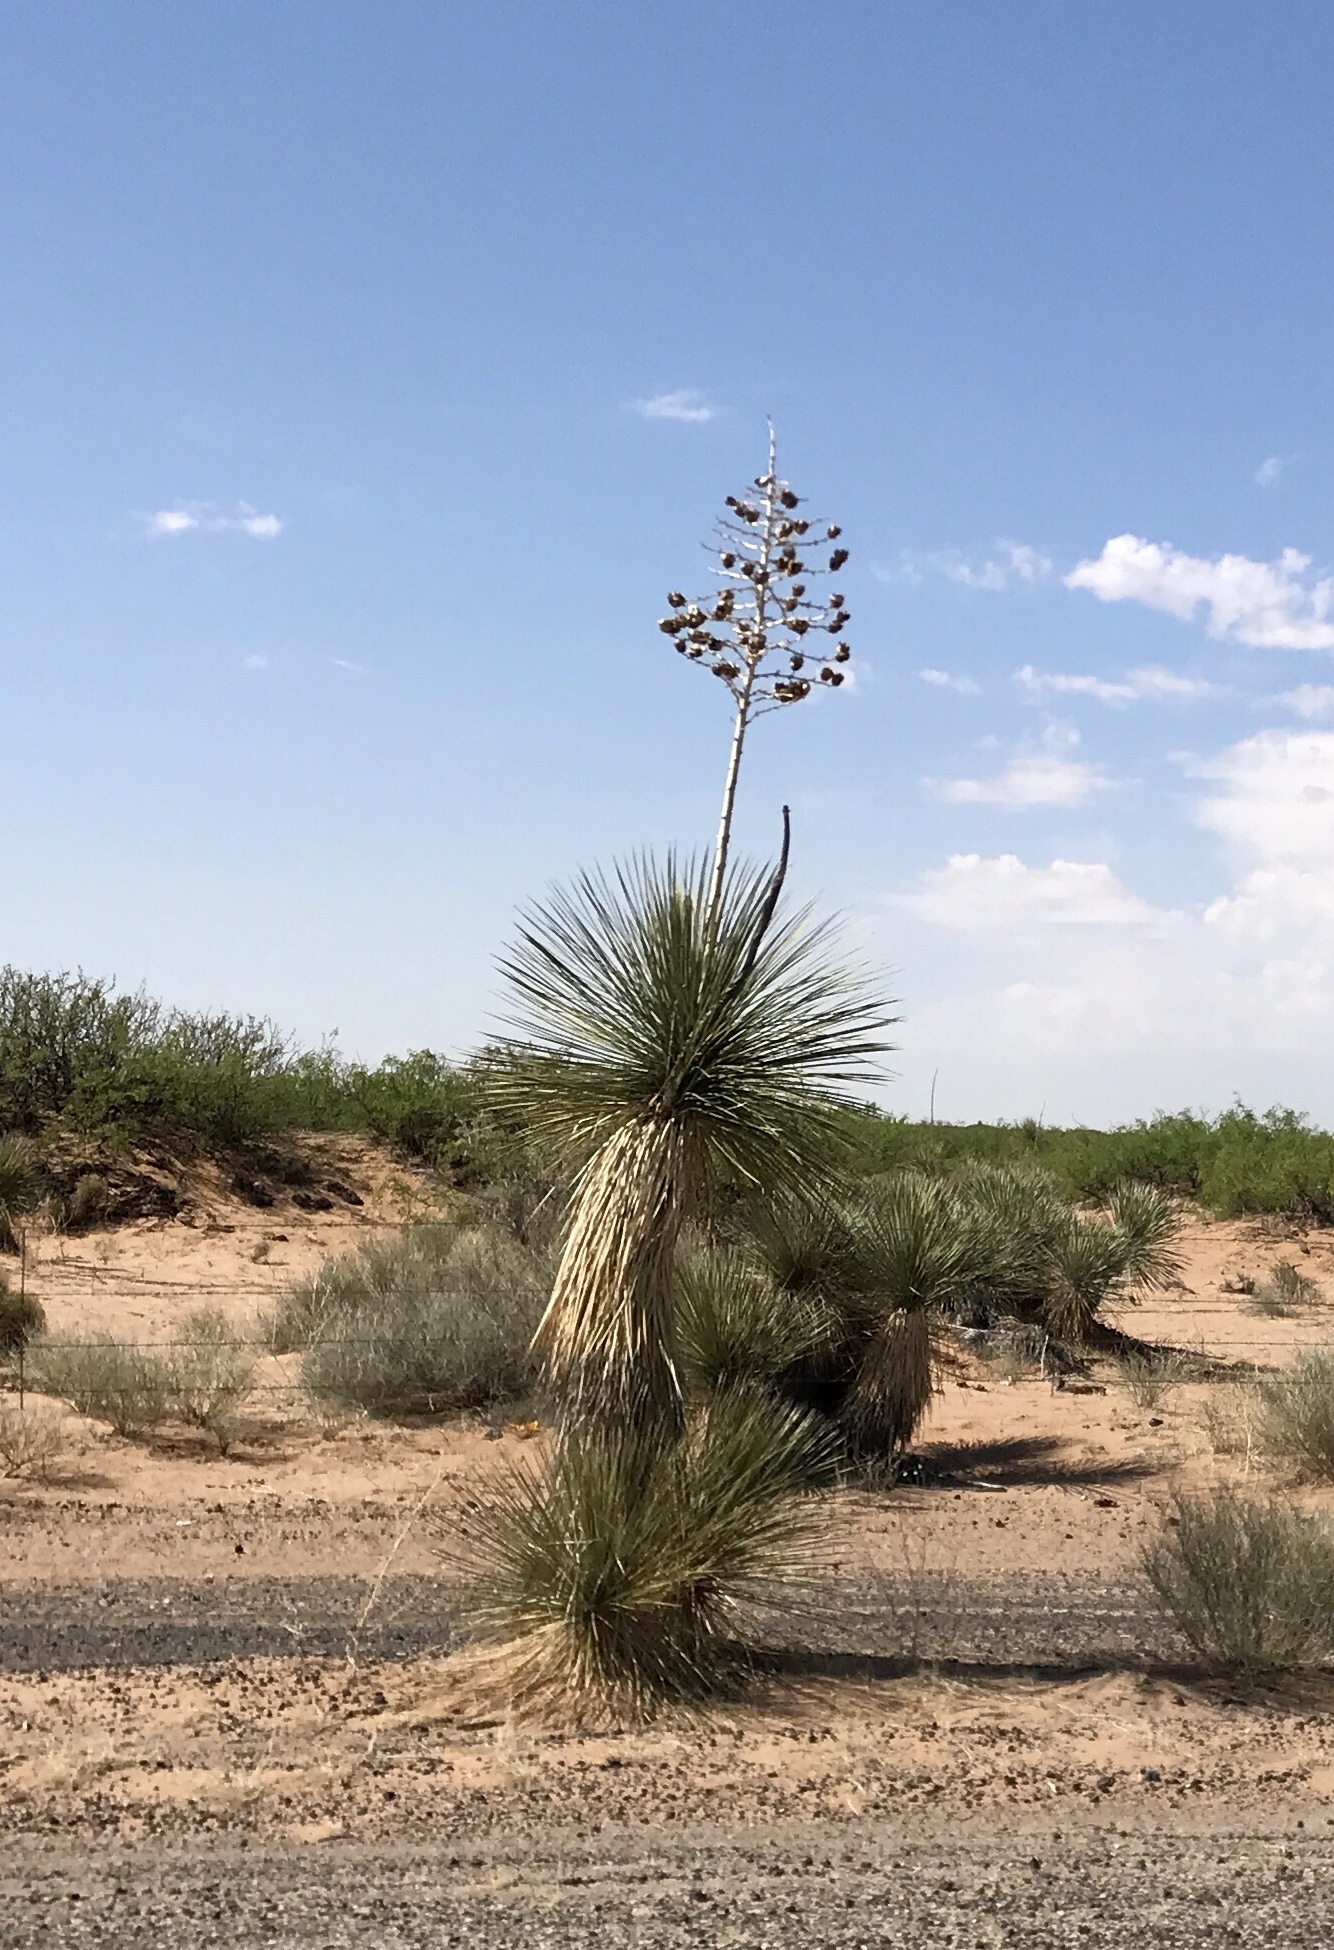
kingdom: Plantae
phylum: Tracheophyta
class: Liliopsida
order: Asparagales
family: Asparagaceae
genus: Yucca
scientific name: Yucca elata
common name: Palmella
